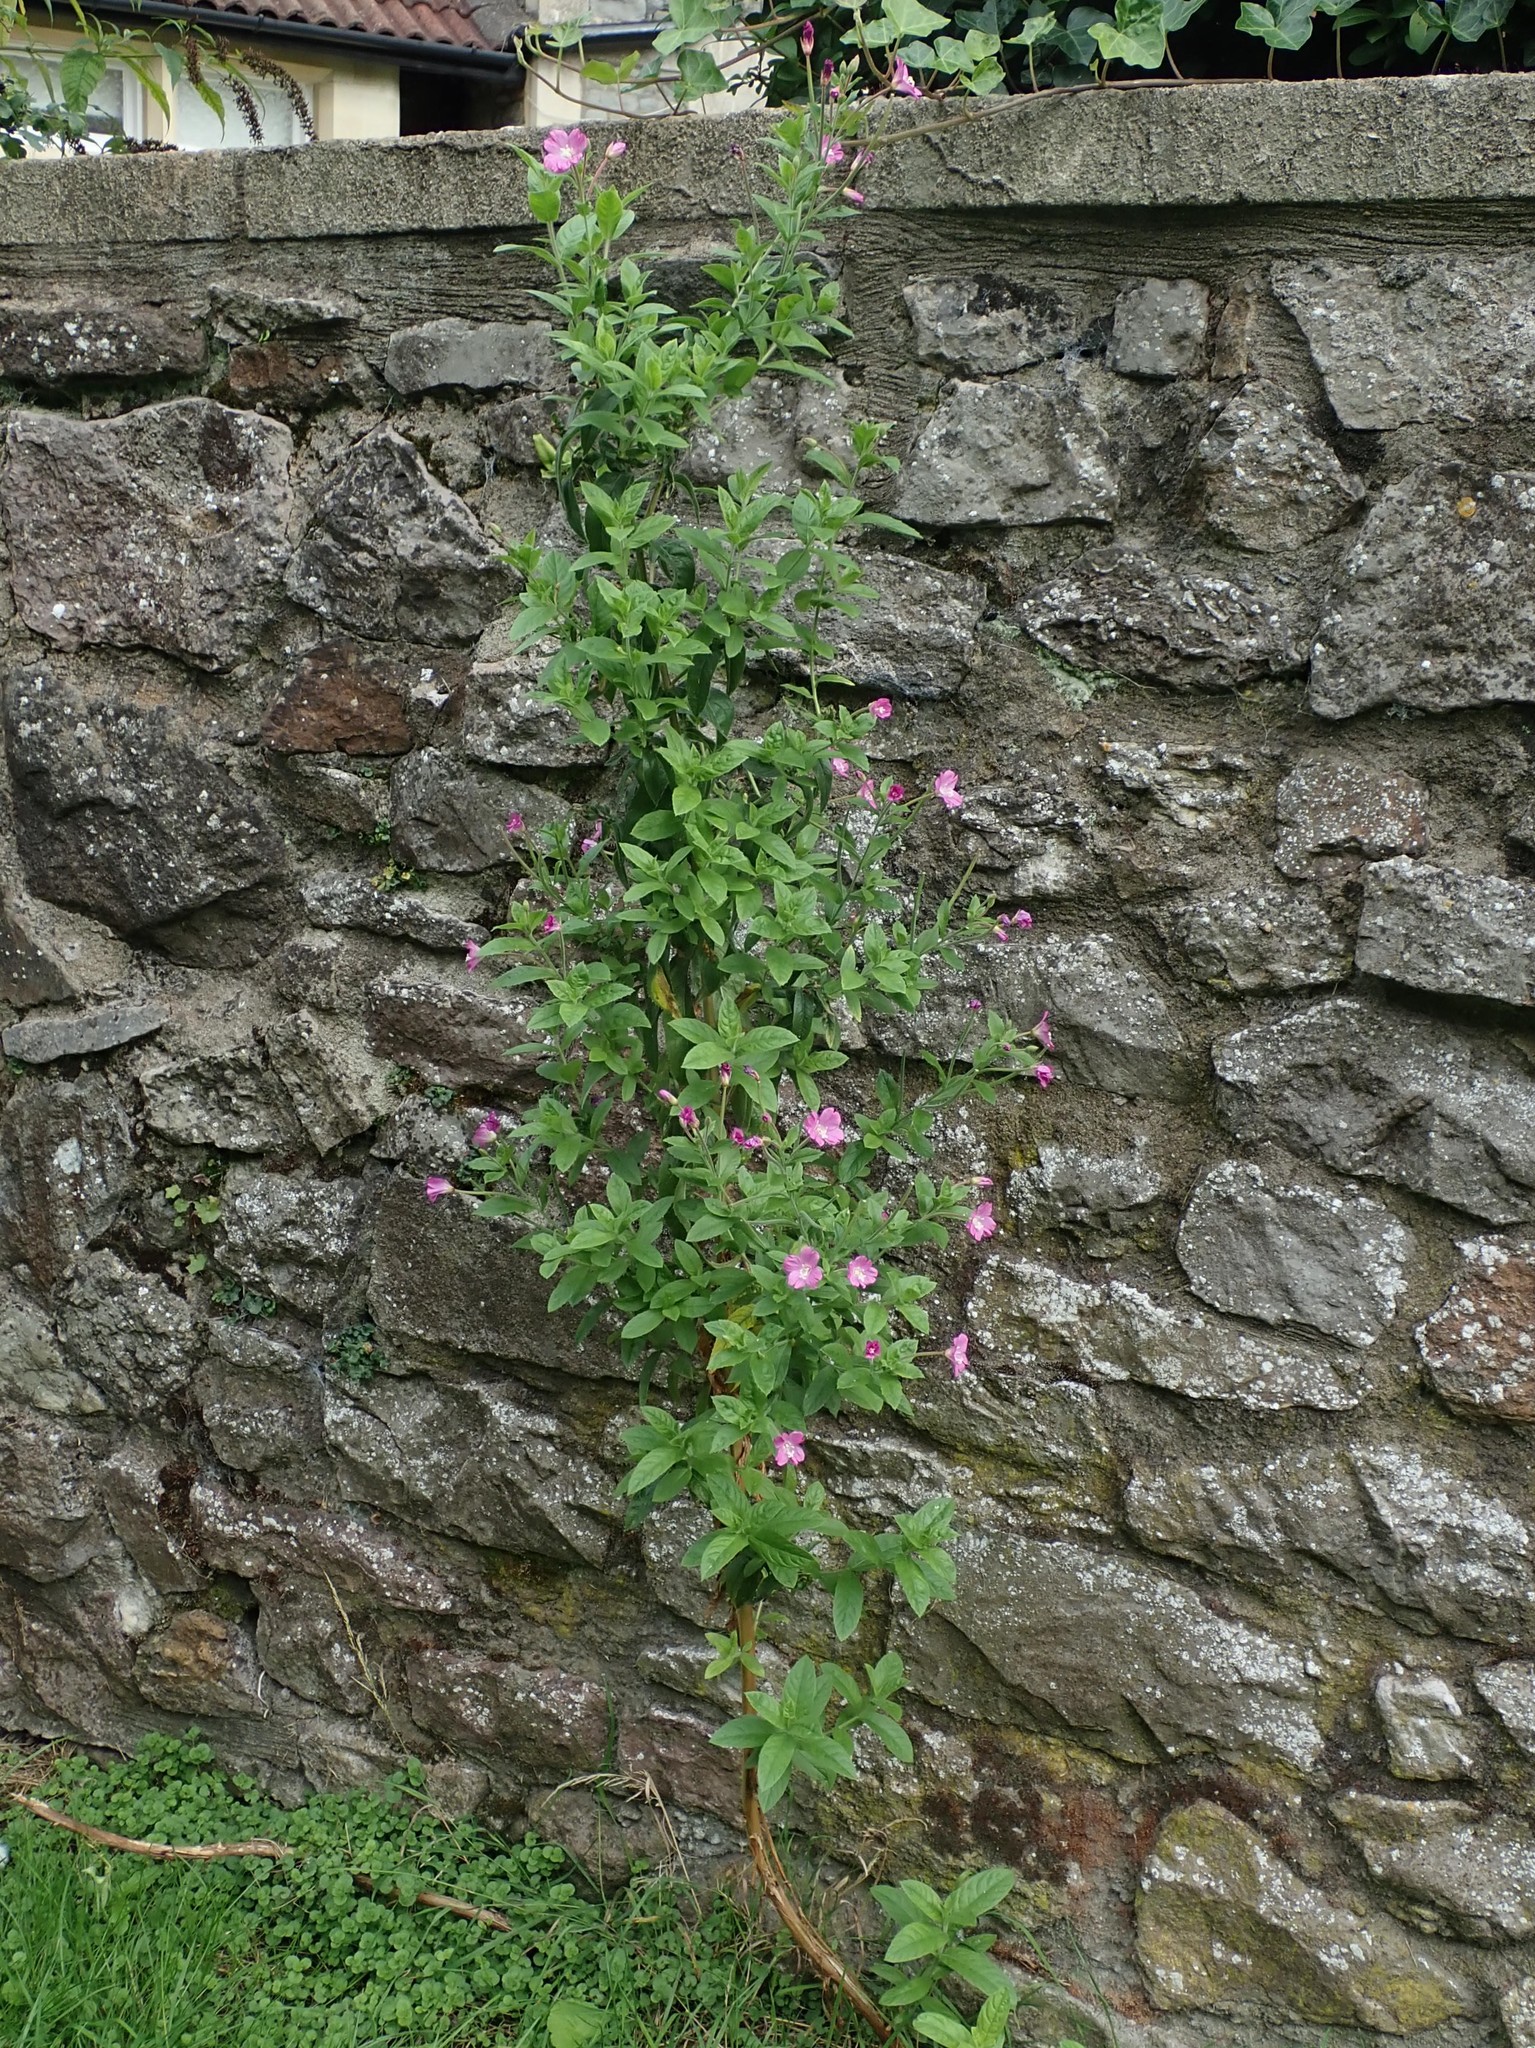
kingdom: Plantae
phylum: Tracheophyta
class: Magnoliopsida
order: Myrtales
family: Onagraceae
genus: Epilobium
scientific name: Epilobium hirsutum
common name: Great willowherb
